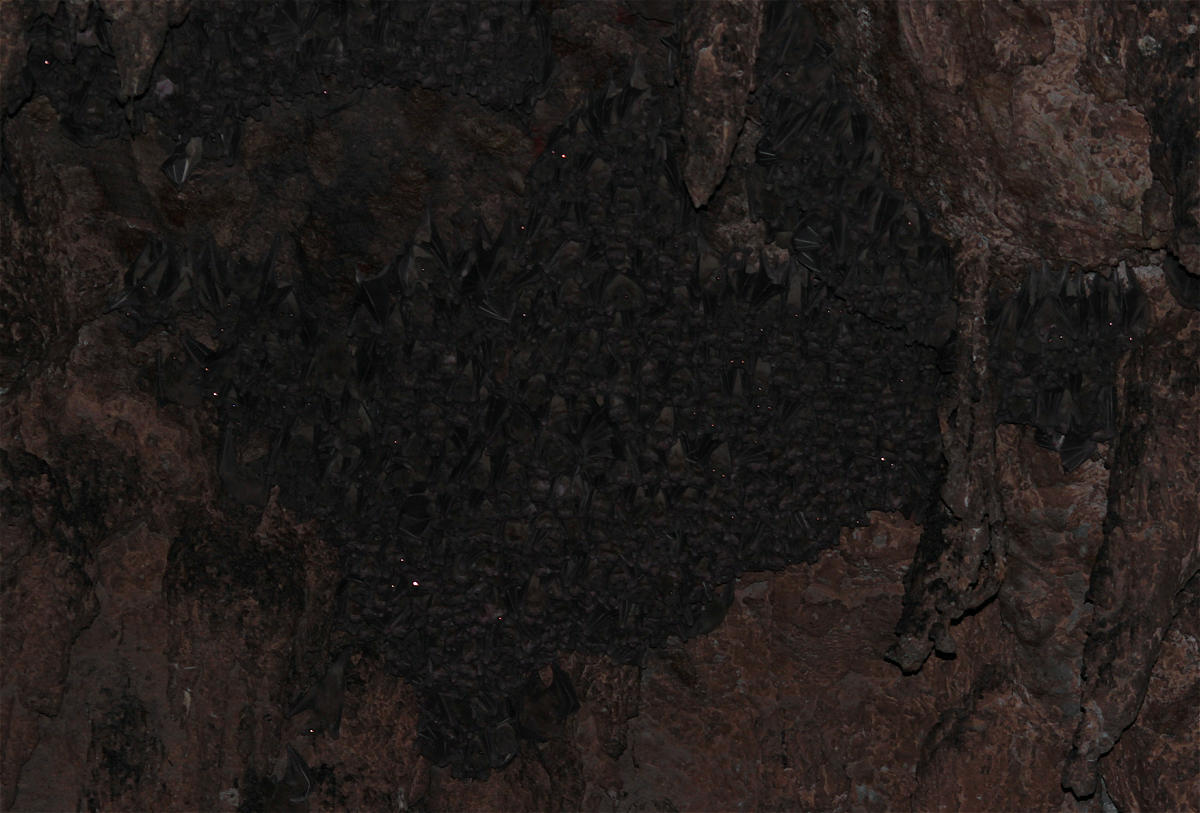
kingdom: Animalia
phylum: Chordata
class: Mammalia
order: Chiroptera
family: Pteropodidae
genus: Rousettus
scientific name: Rousettus aegyptiacus
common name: Egyptian rousette
